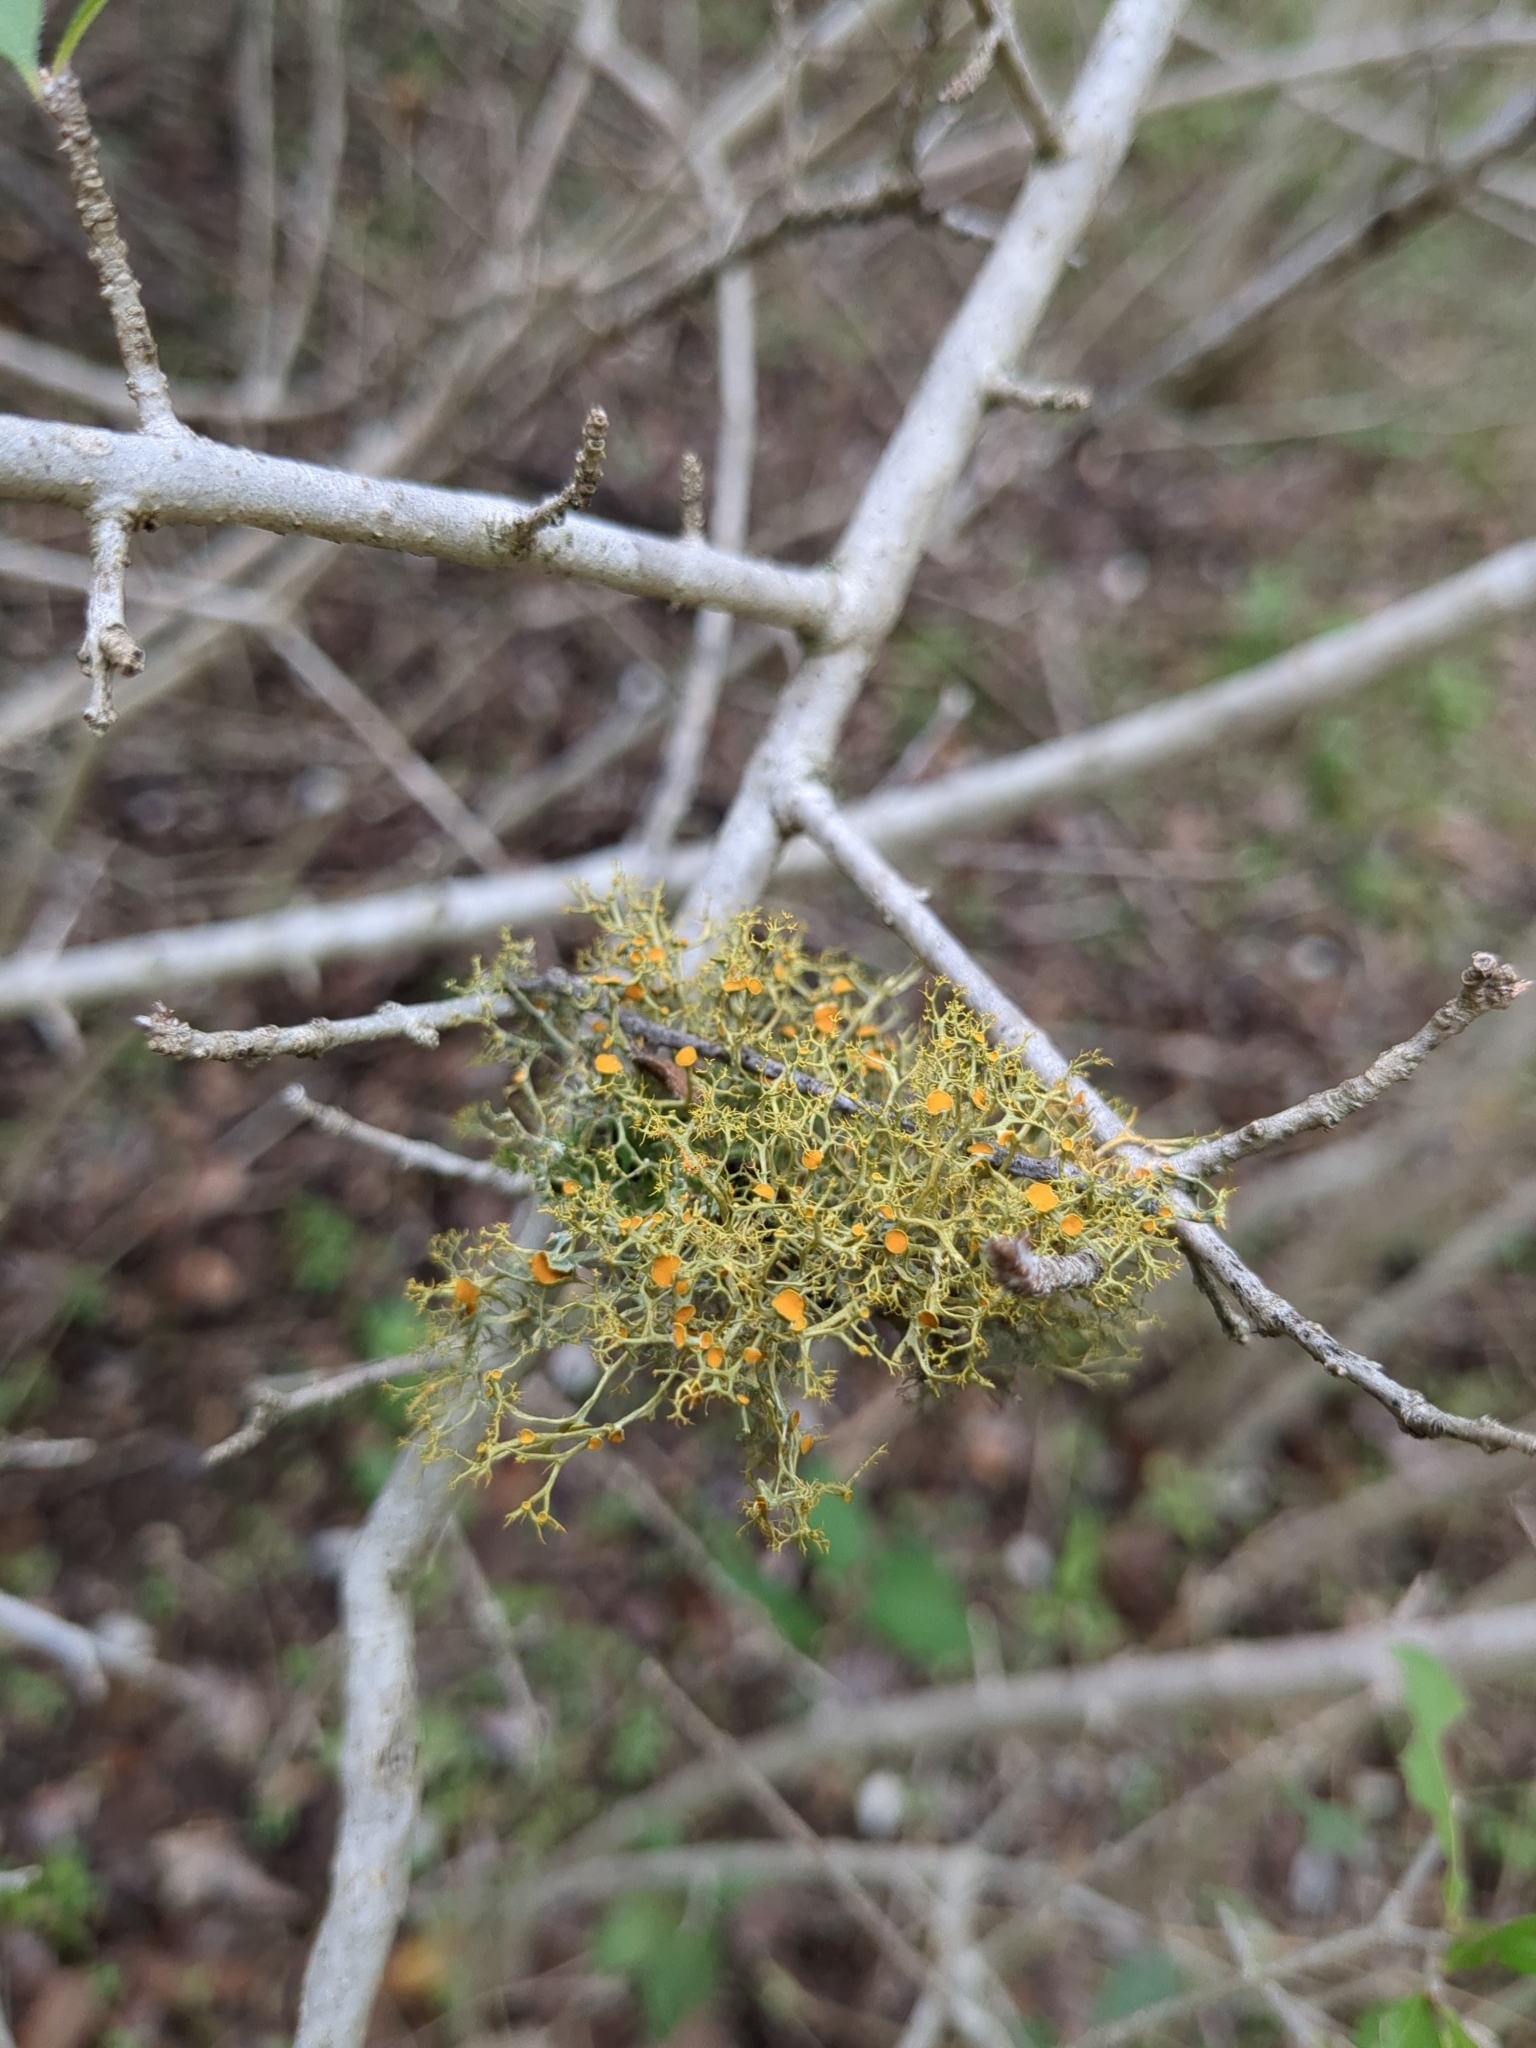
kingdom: Fungi
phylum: Ascomycota
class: Lecanoromycetes
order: Teloschistales
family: Teloschistaceae
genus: Teloschistes
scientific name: Teloschistes exilis
